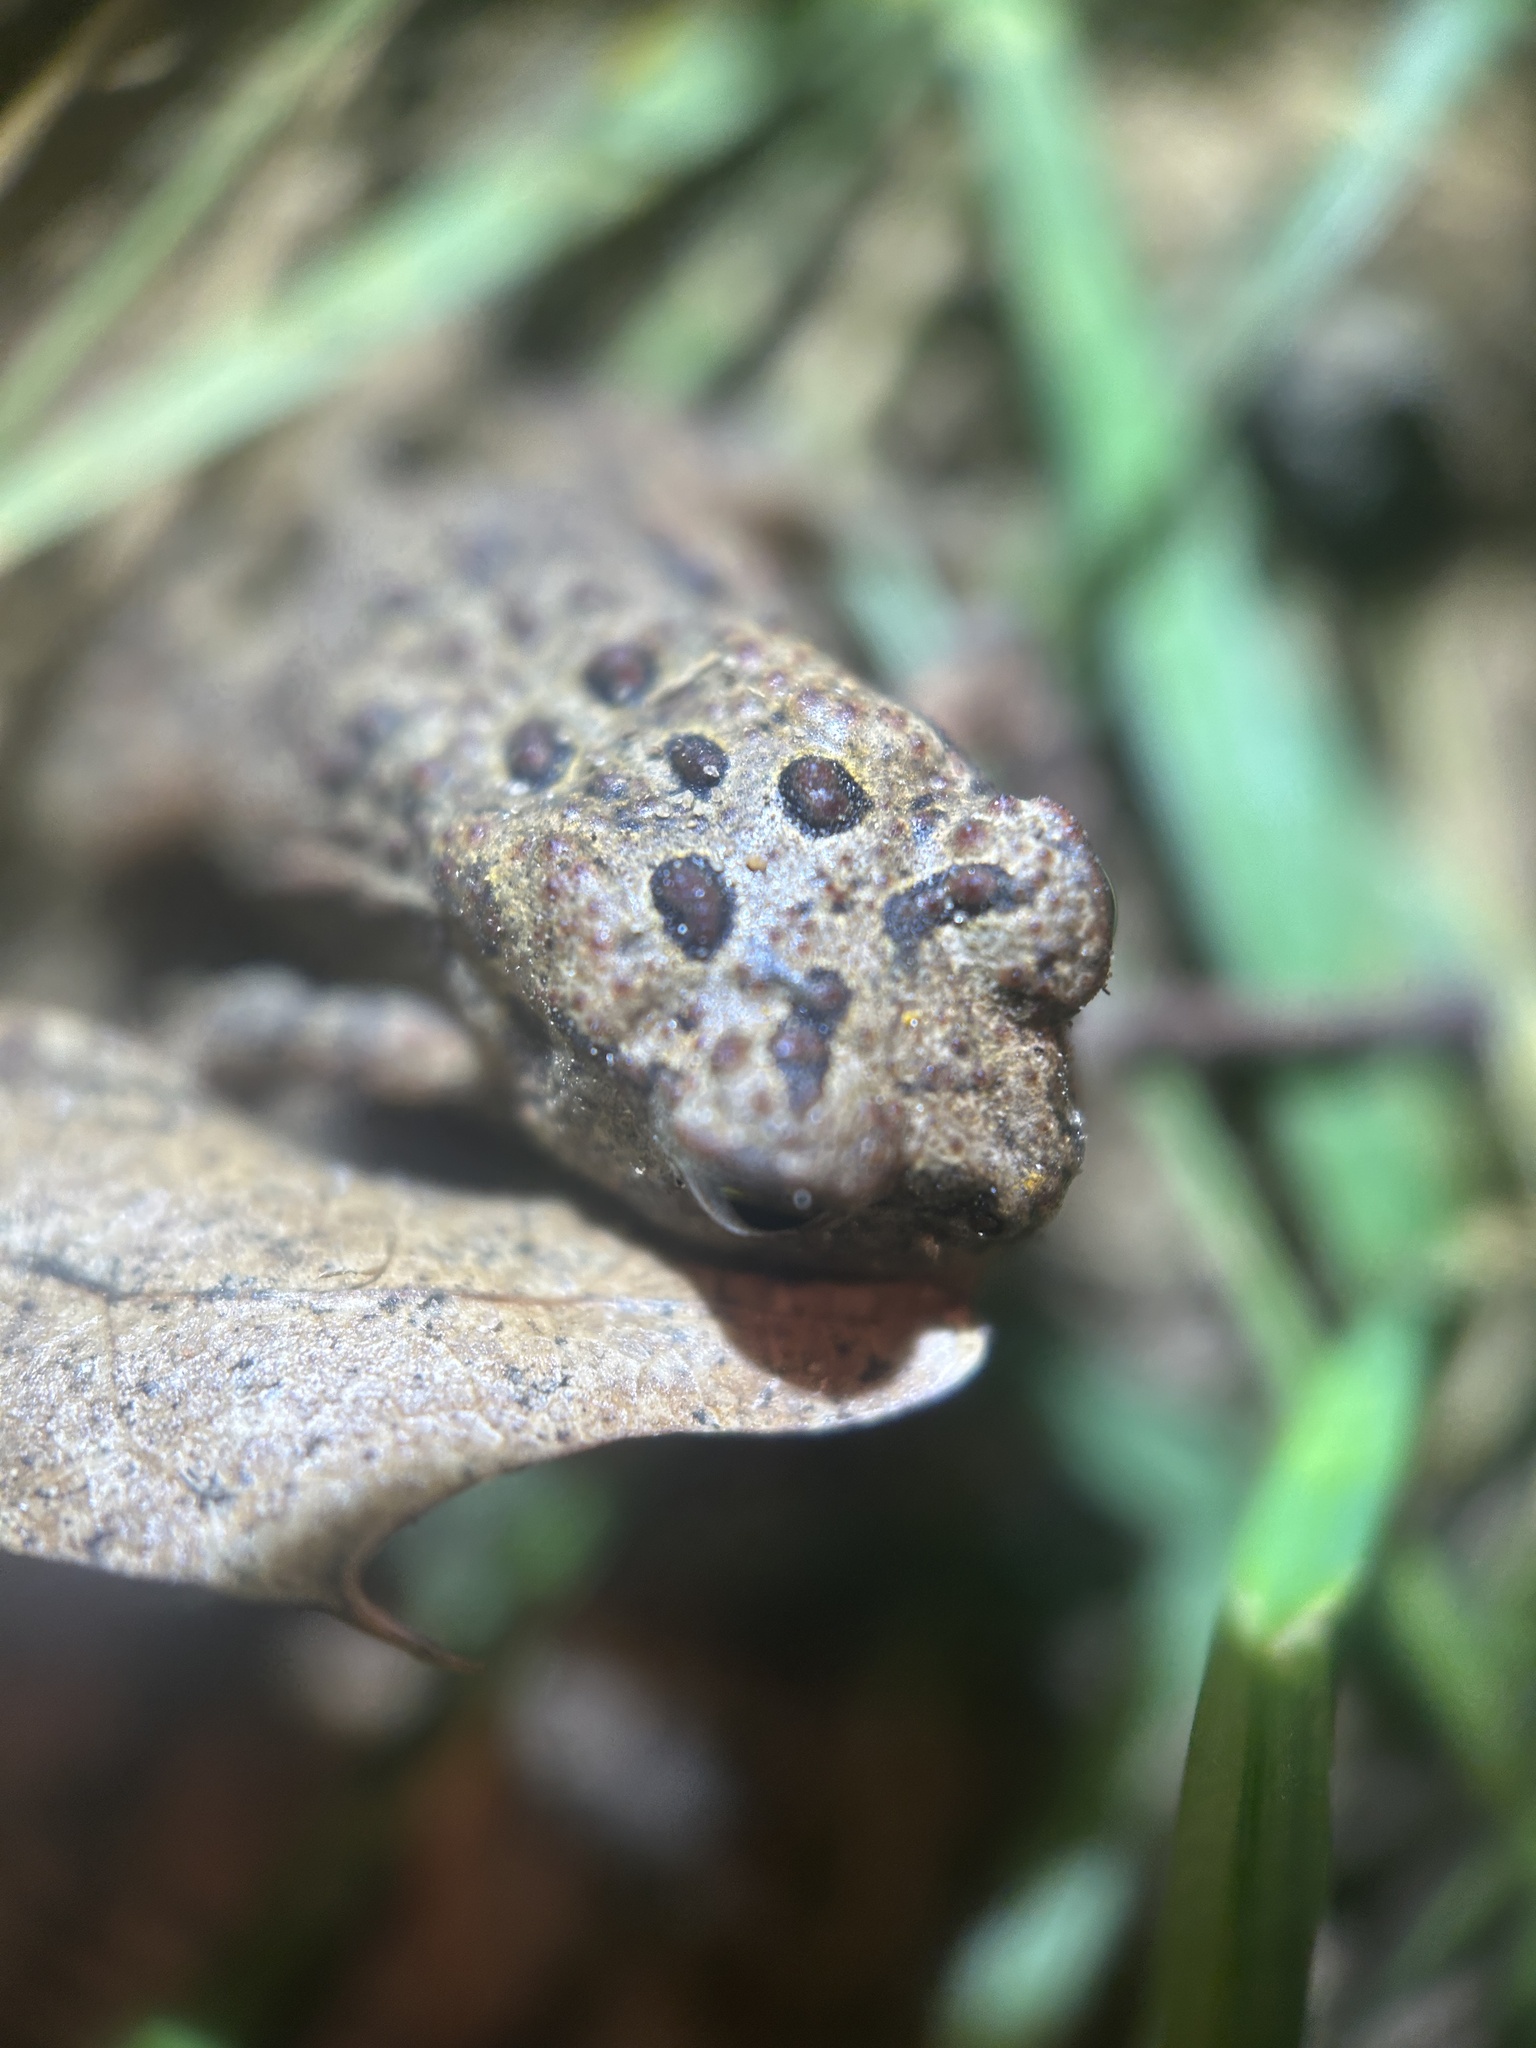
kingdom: Animalia
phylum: Chordata
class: Amphibia
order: Anura
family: Bufonidae
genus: Anaxyrus
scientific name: Anaxyrus americanus
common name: American toad
